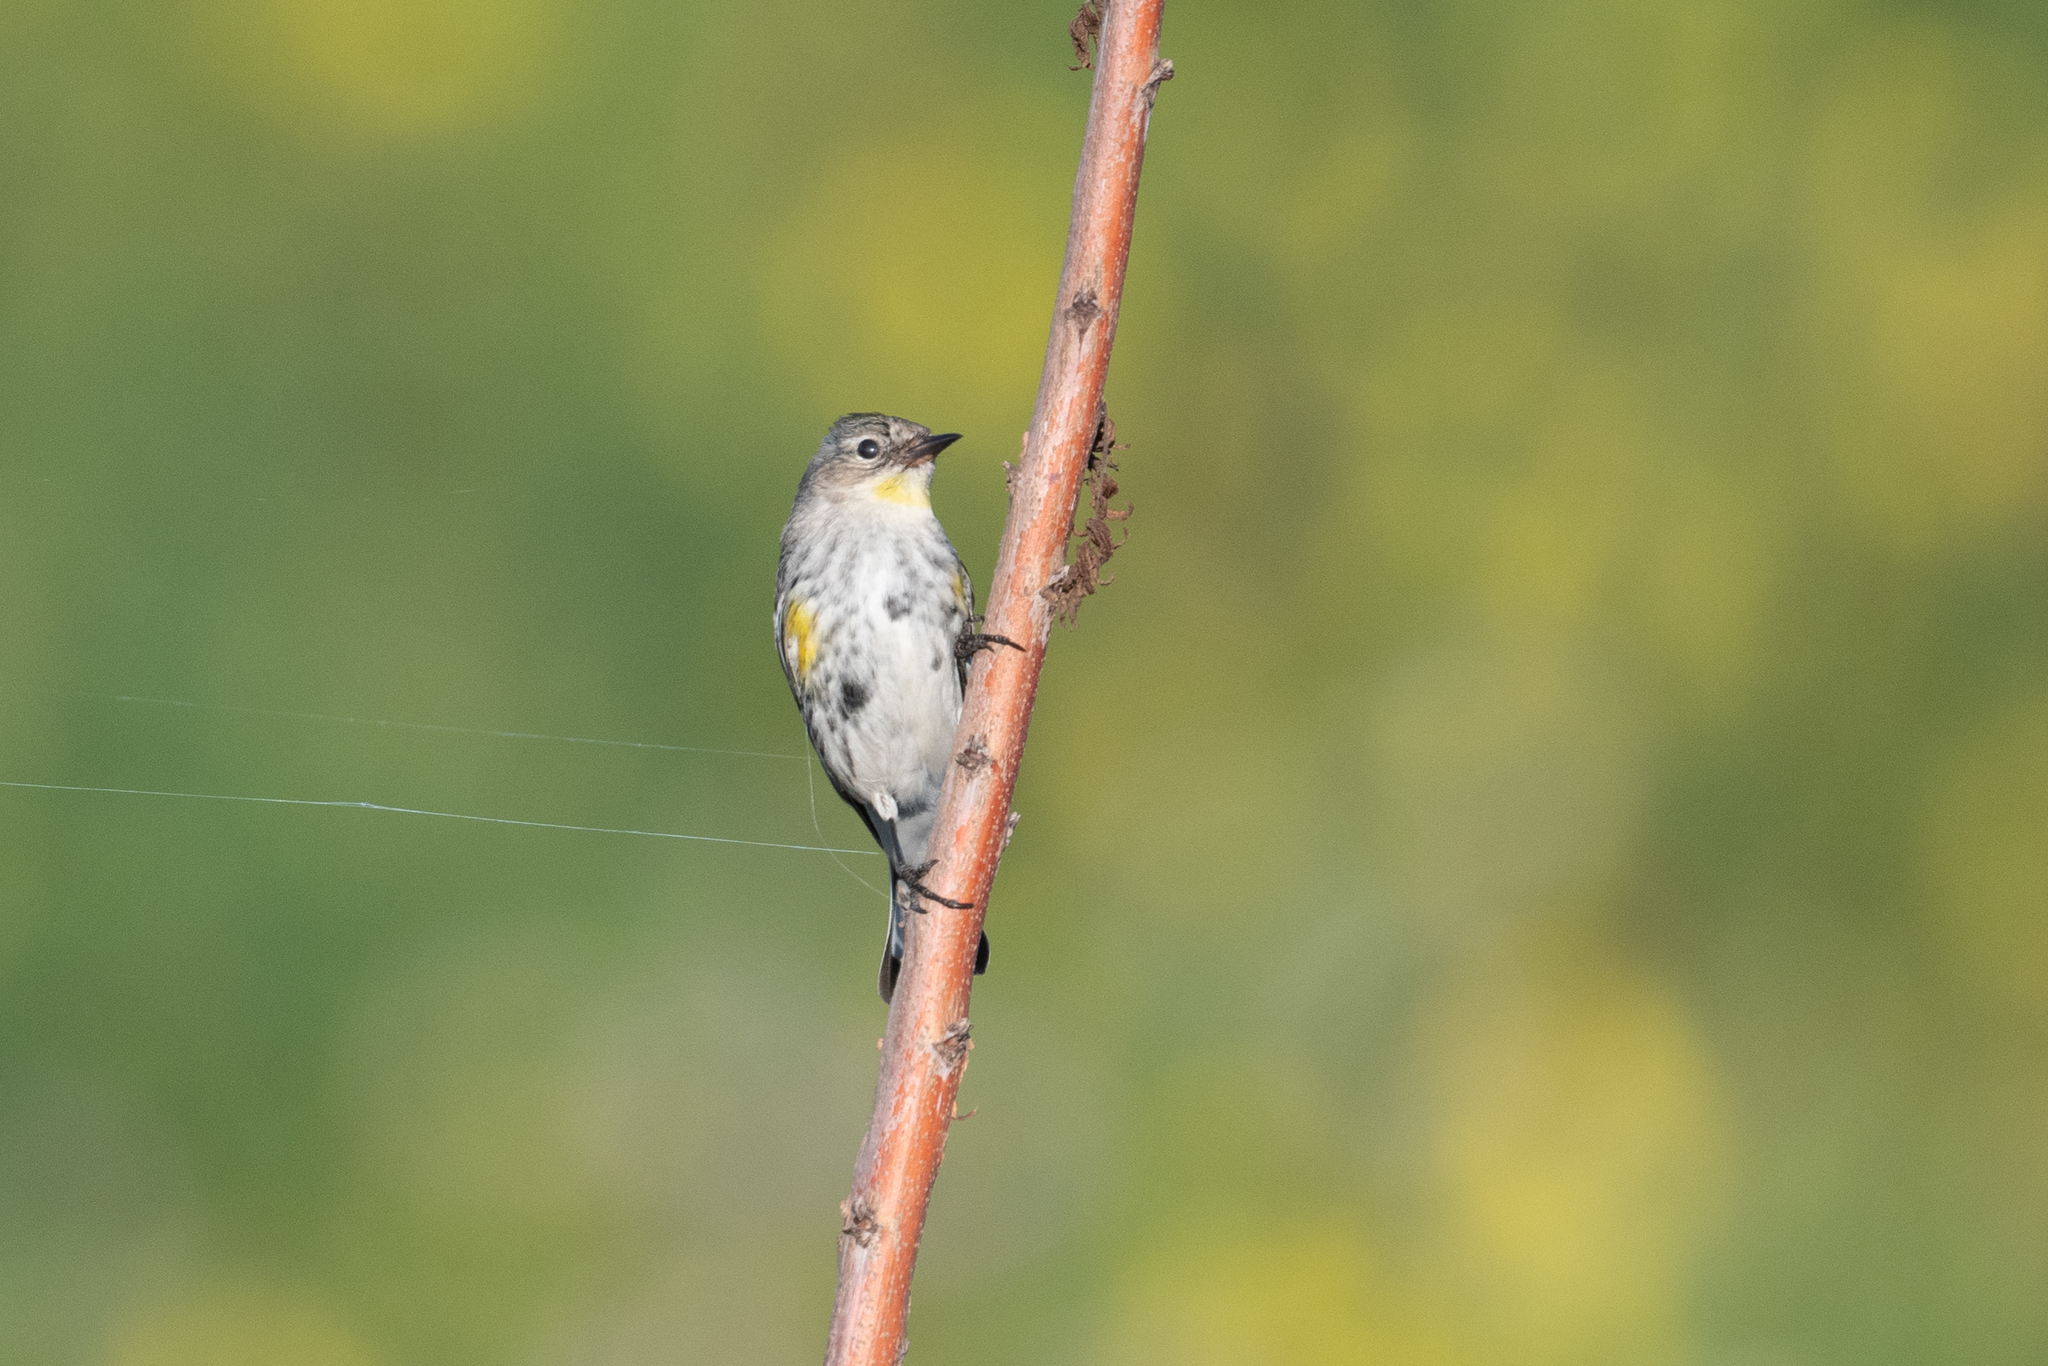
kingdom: Animalia
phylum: Chordata
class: Aves
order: Passeriformes
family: Parulidae
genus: Setophaga
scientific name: Setophaga coronata
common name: Myrtle warbler
